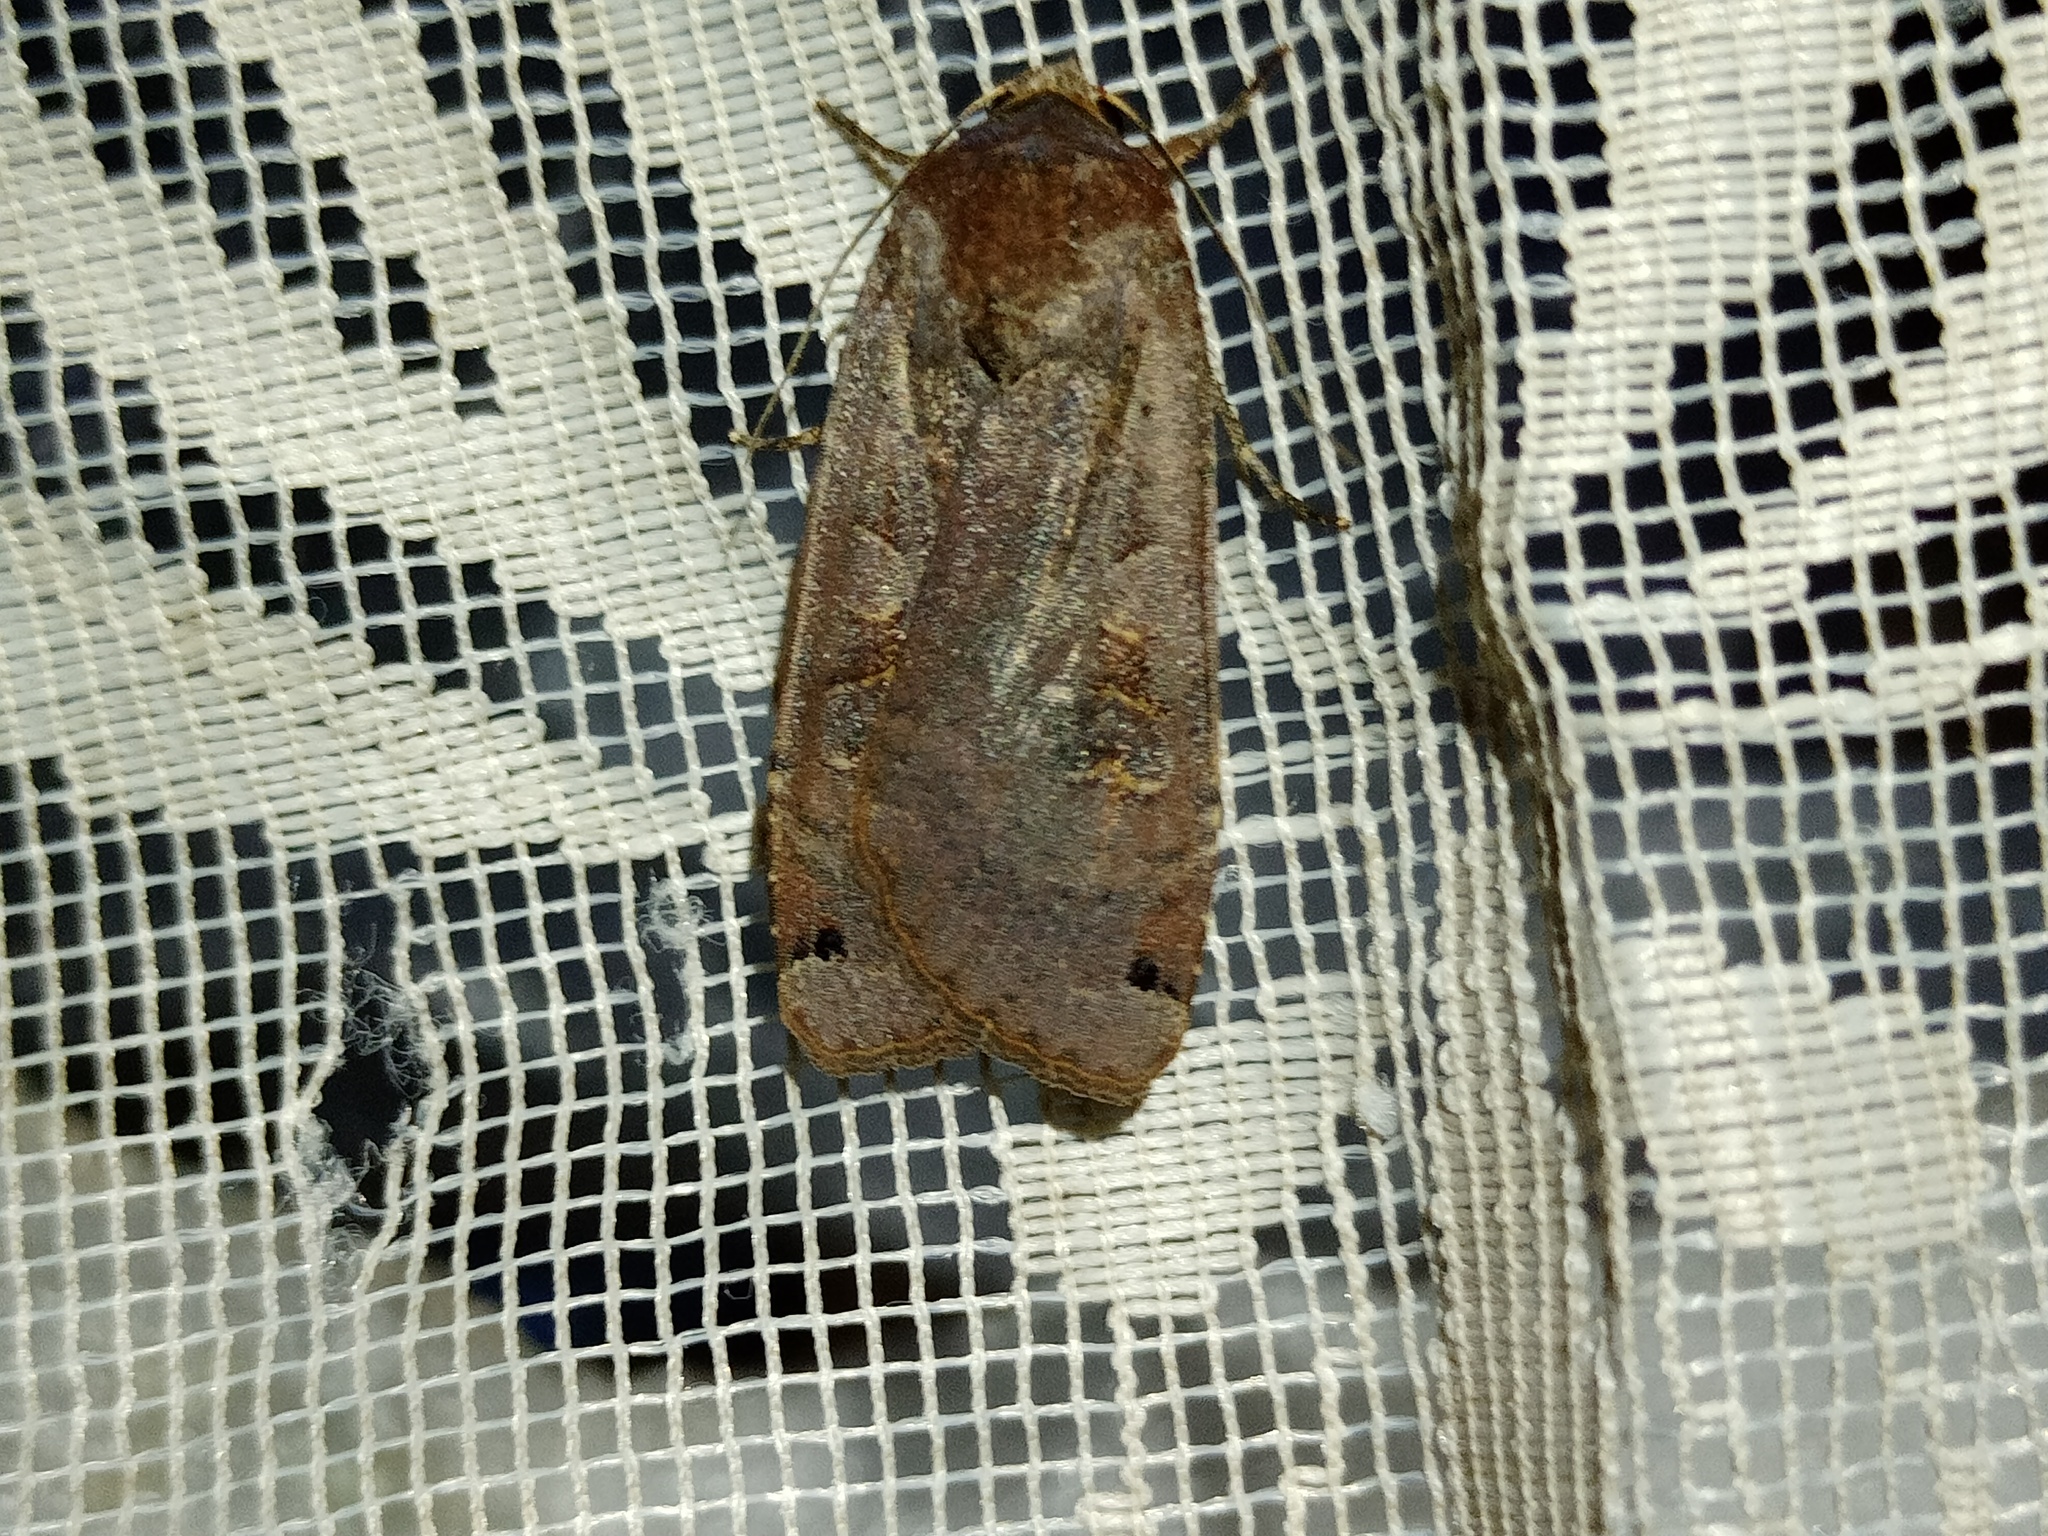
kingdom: Animalia
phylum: Arthropoda
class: Insecta
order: Lepidoptera
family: Noctuidae
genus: Noctua
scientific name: Noctua pronuba
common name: Large yellow underwing
